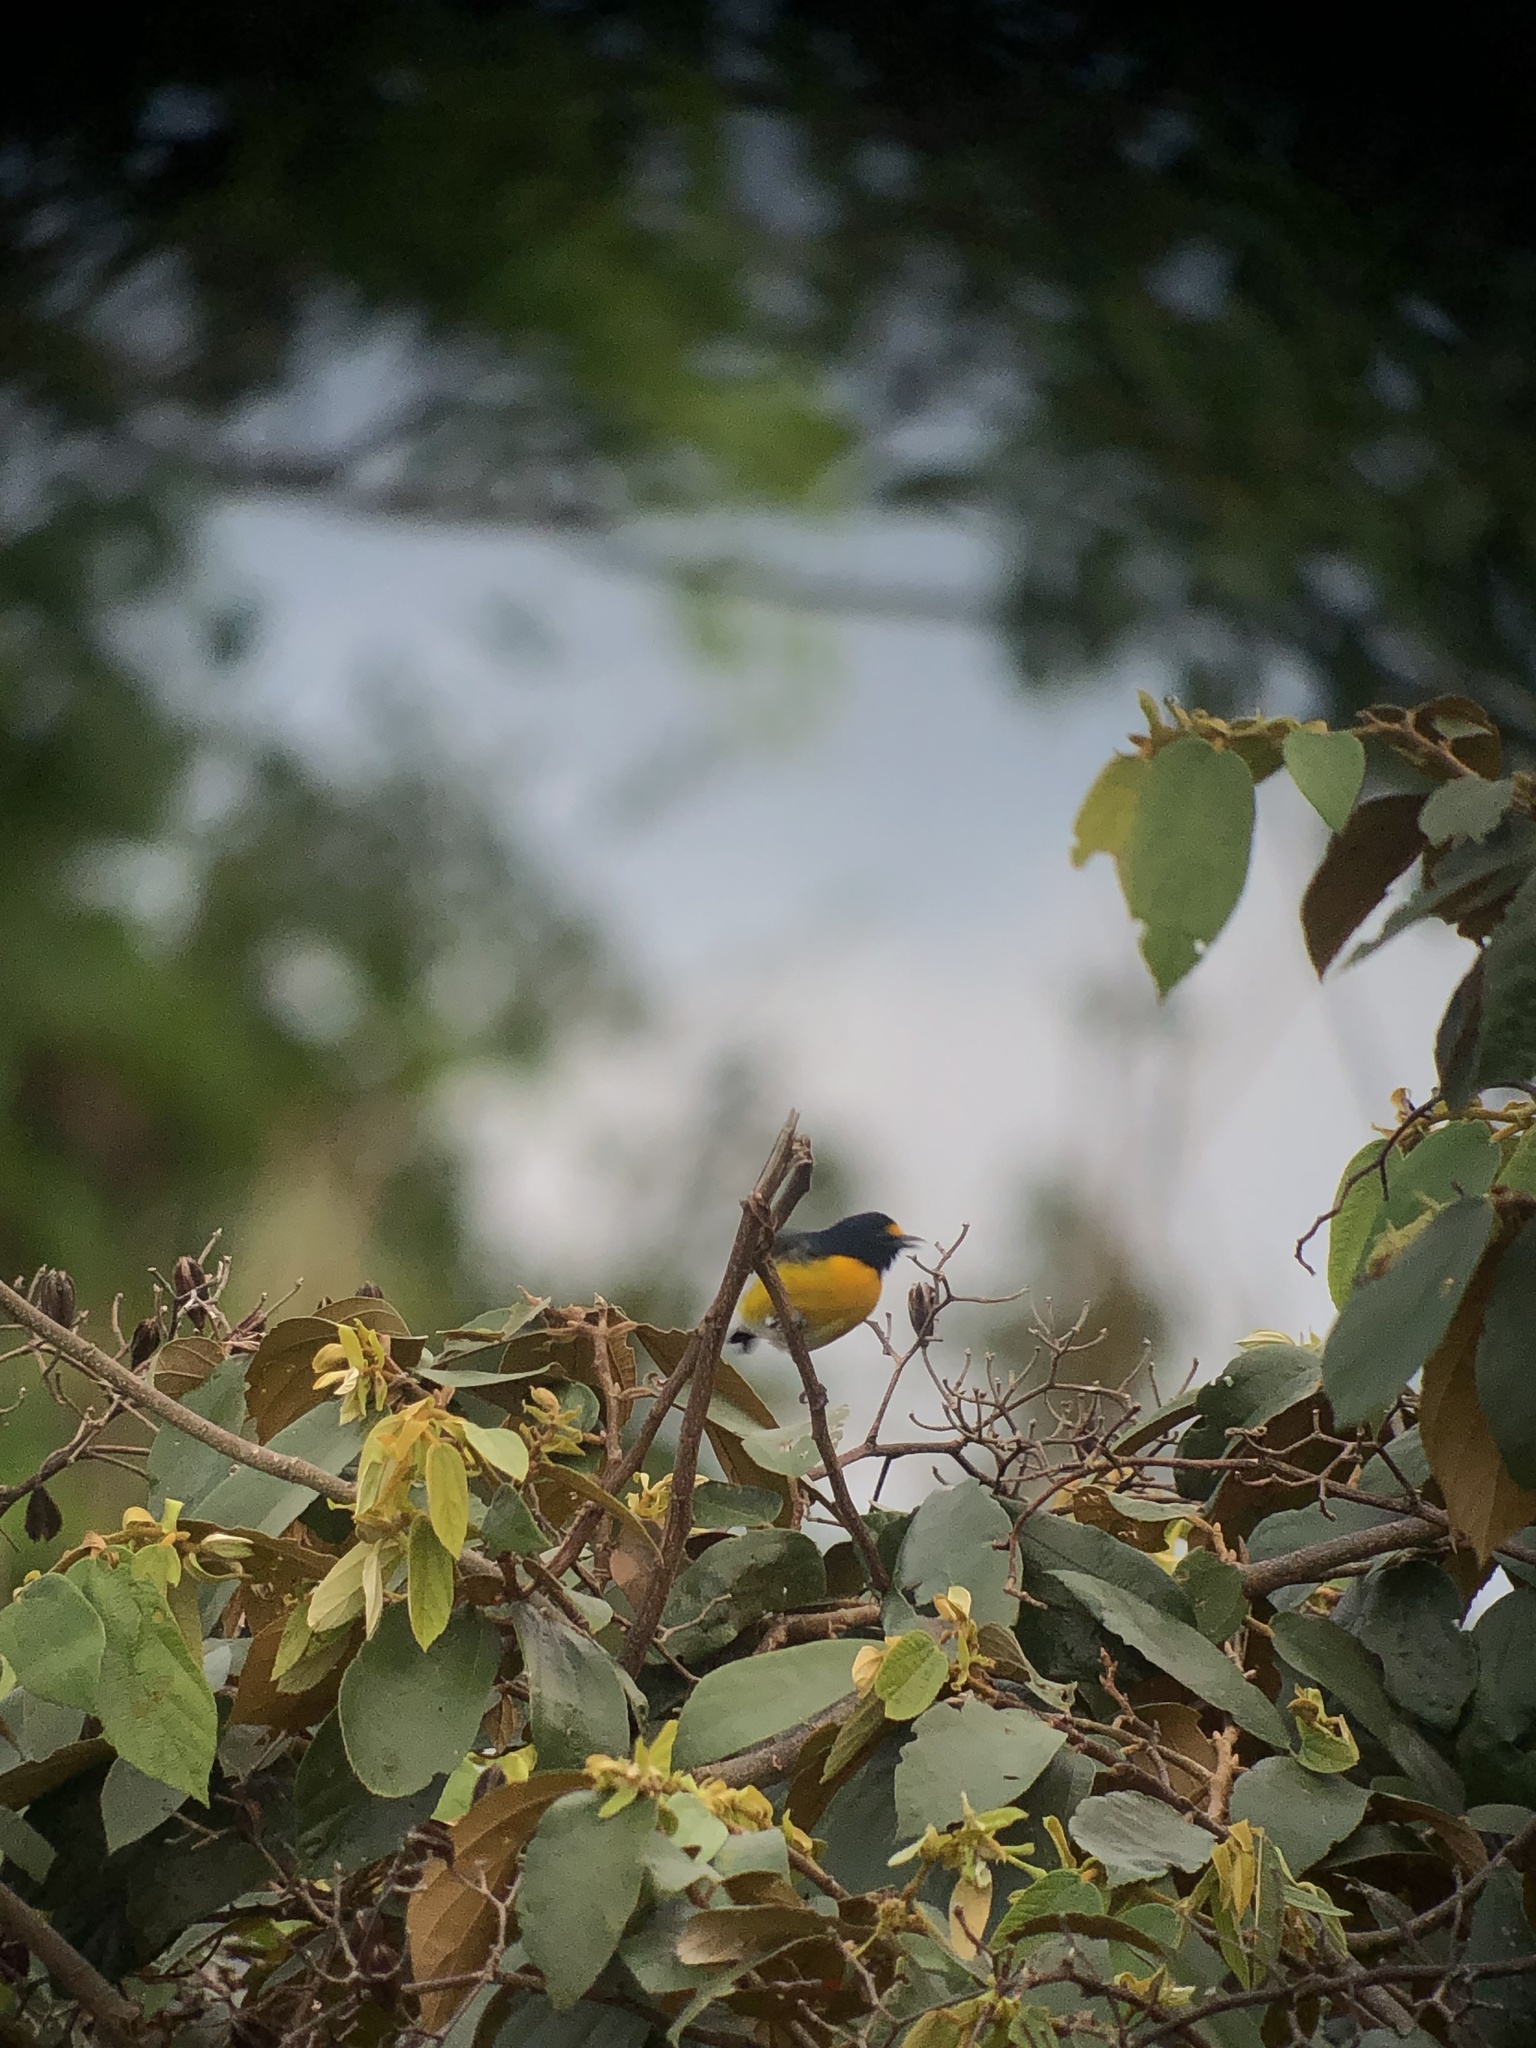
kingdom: Animalia
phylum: Chordata
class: Aves
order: Passeriformes
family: Fringillidae
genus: Euphonia
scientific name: Euphonia minuta
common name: White-vented euphonia
